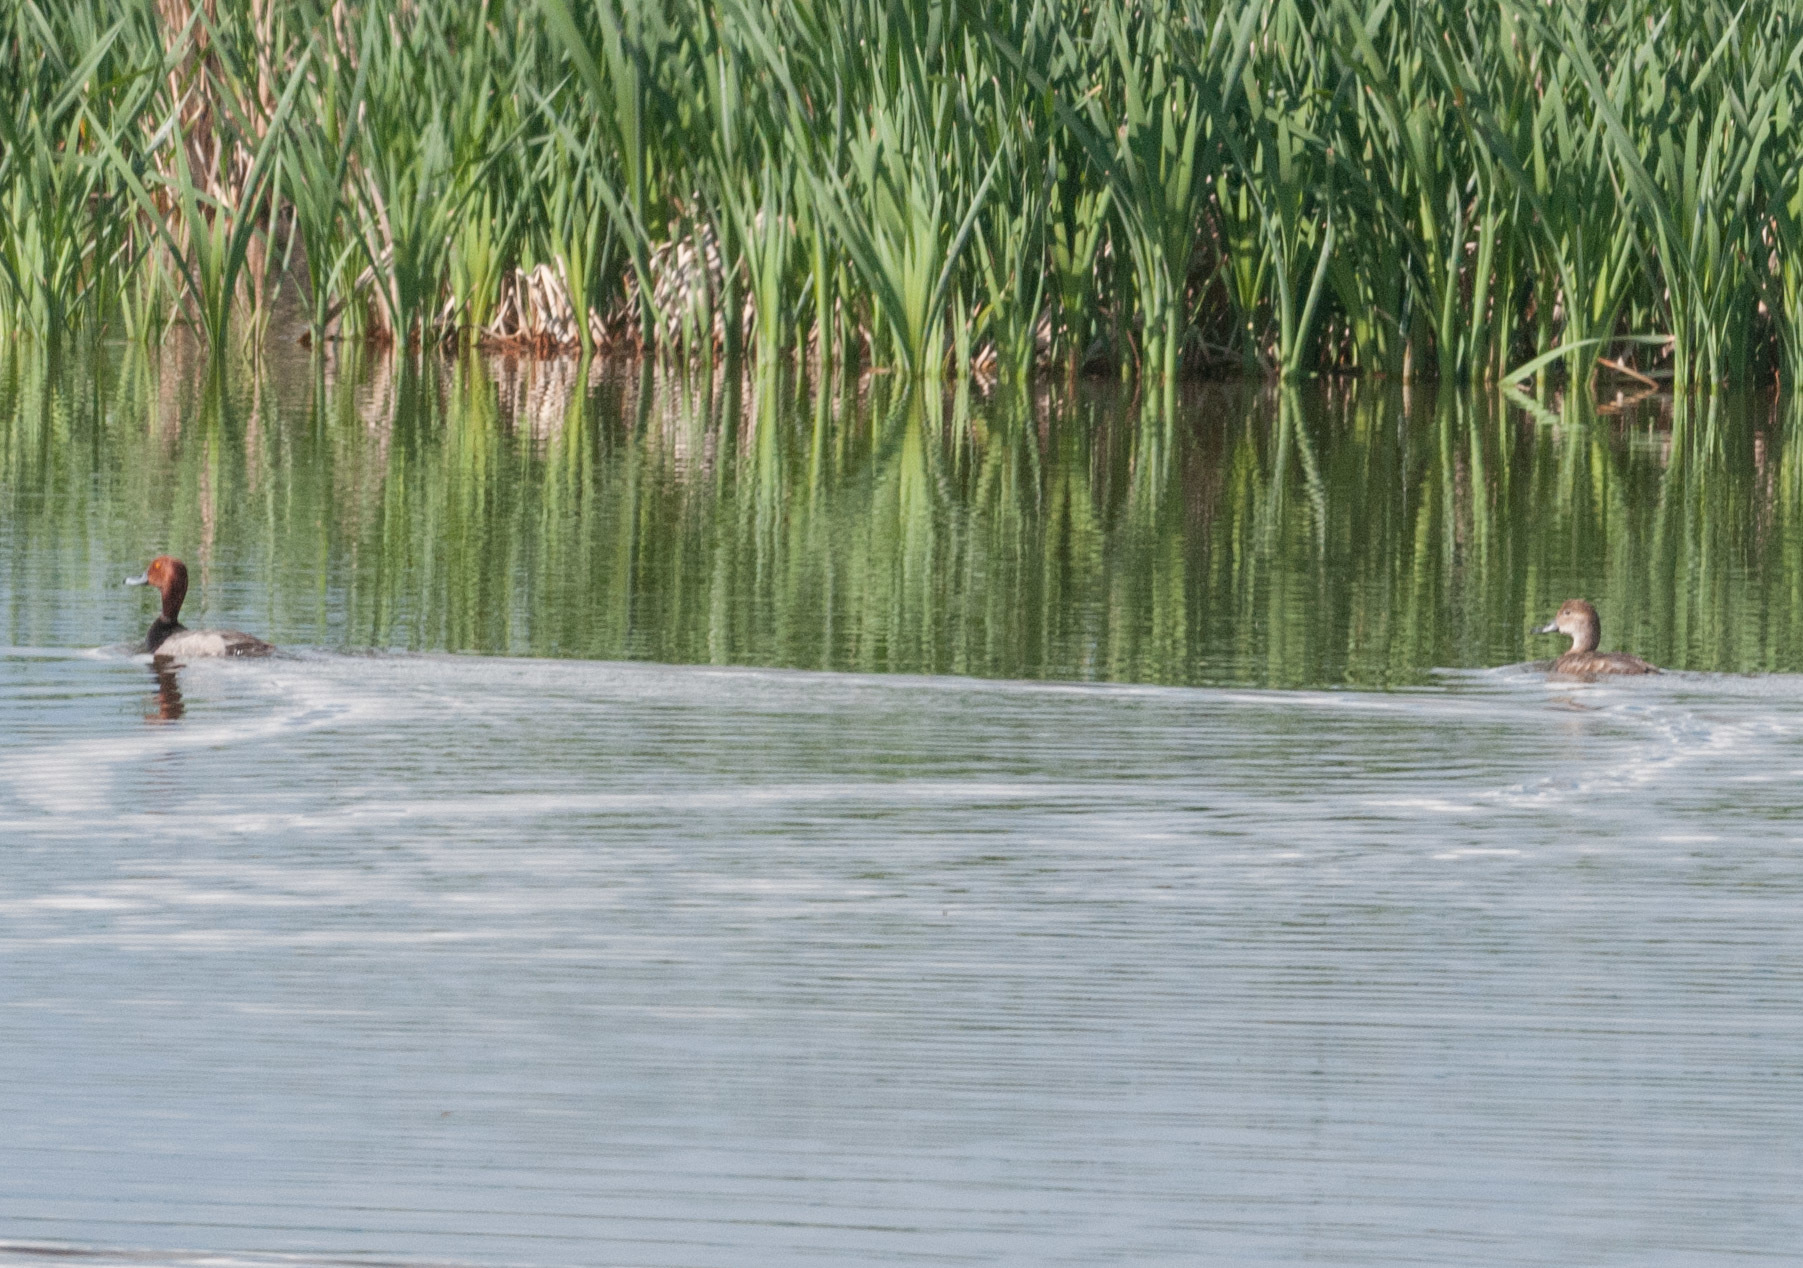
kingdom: Animalia
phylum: Chordata
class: Aves
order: Anseriformes
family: Anatidae
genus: Aythya
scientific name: Aythya americana
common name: Redhead
